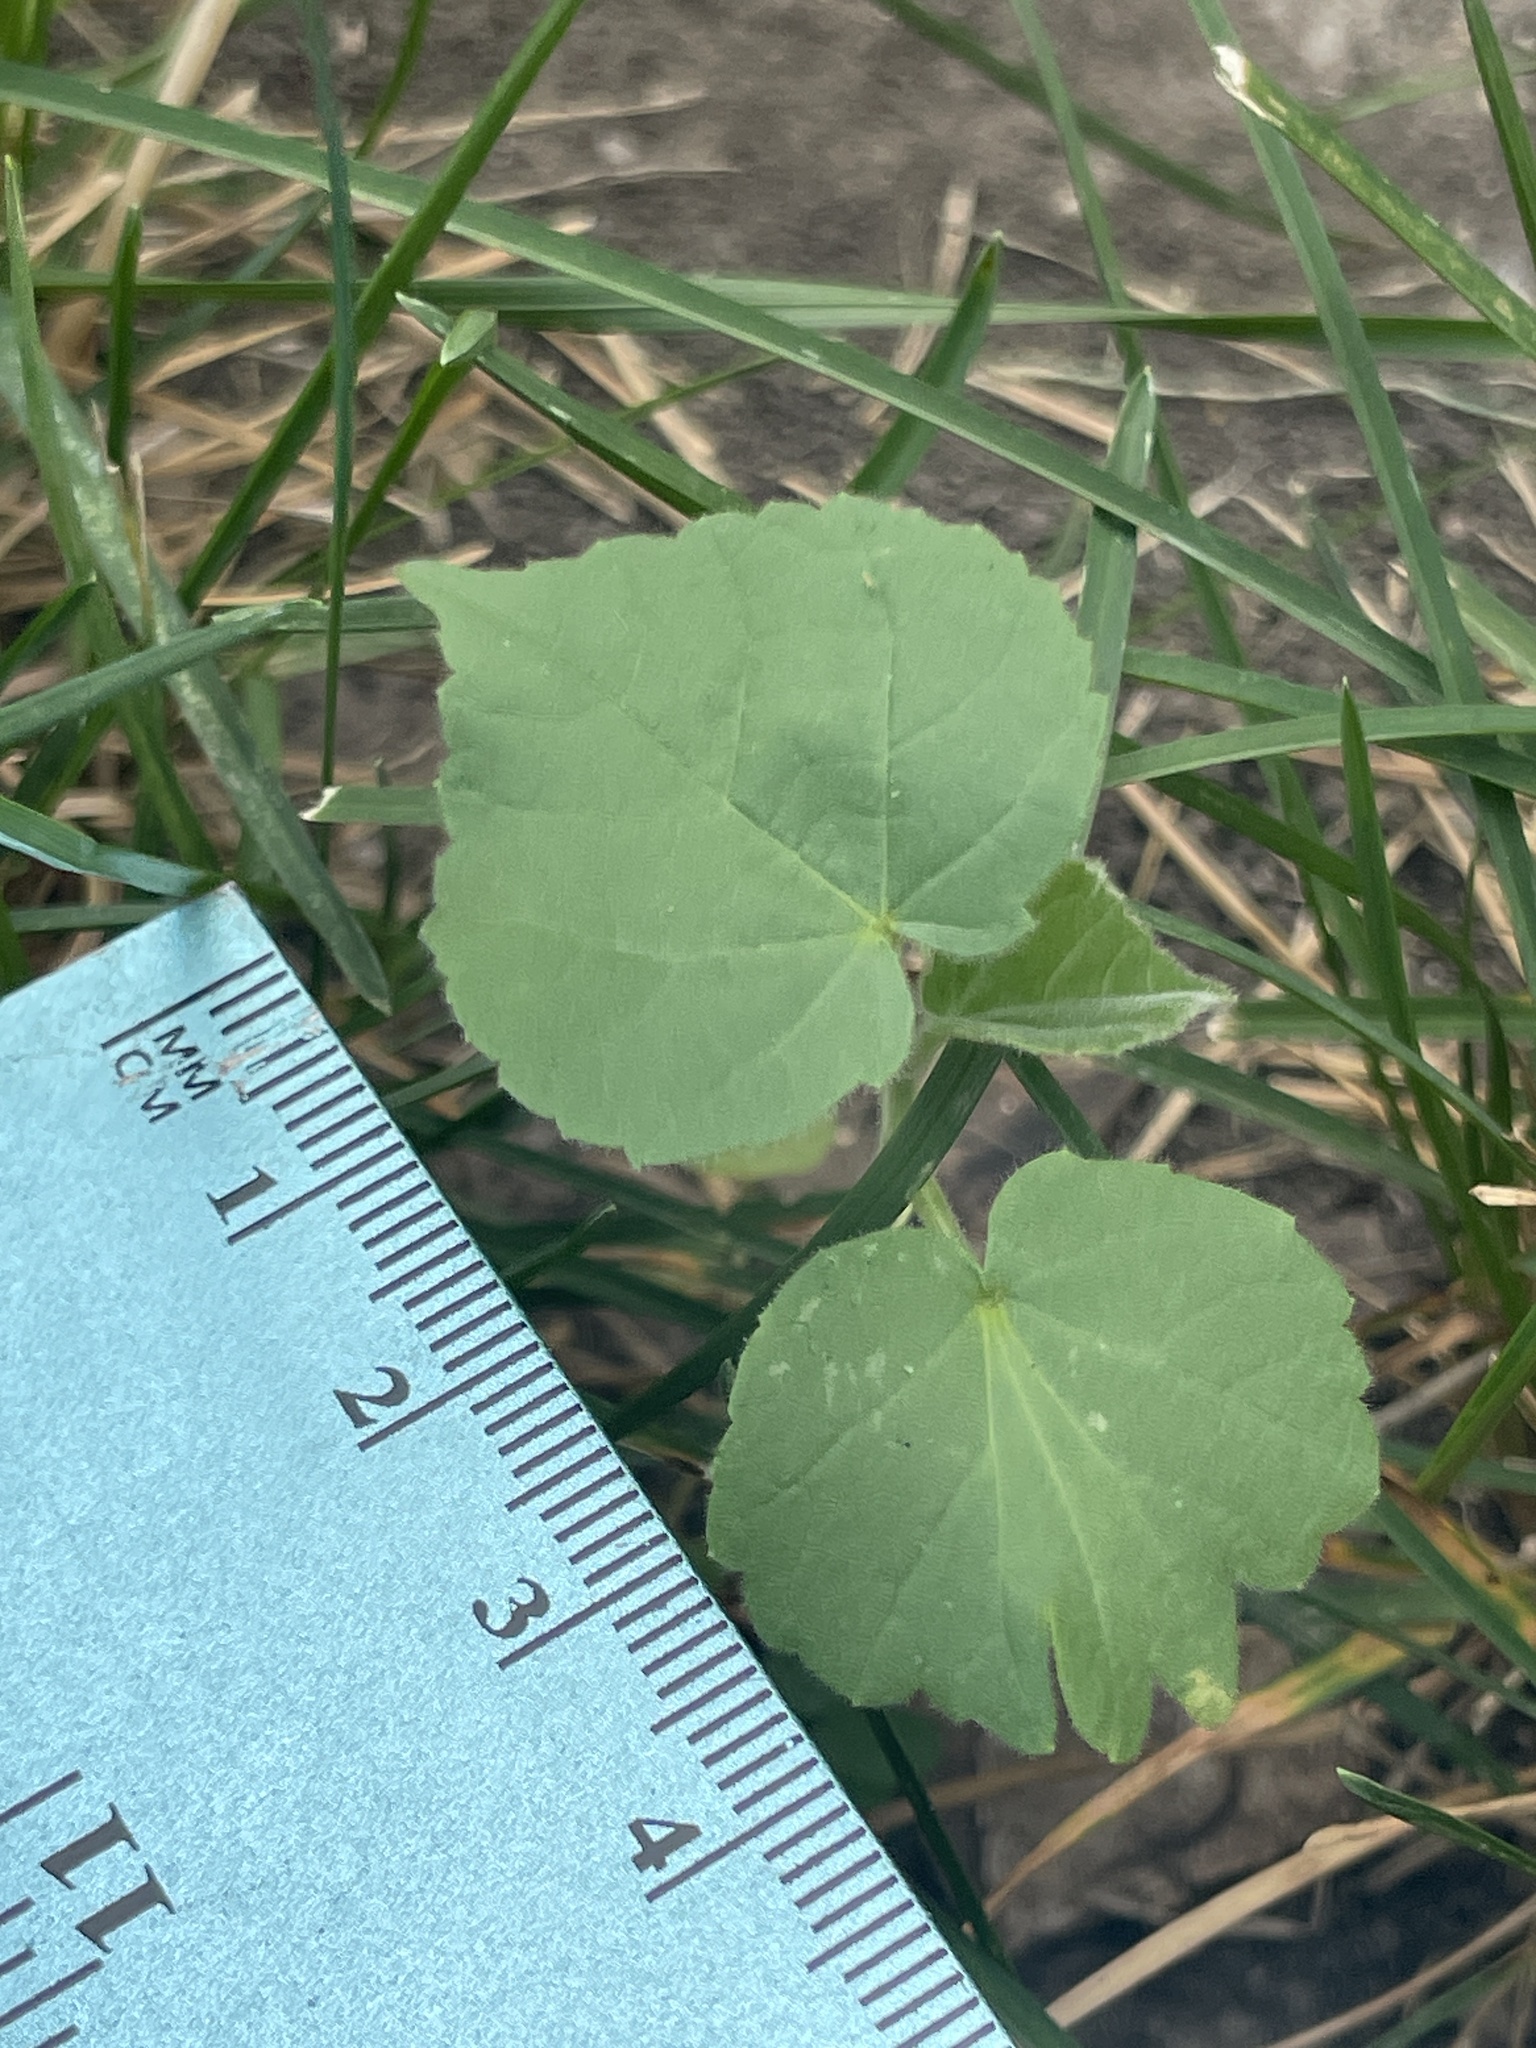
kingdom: Plantae
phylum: Tracheophyta
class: Magnoliopsida
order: Malvales
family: Malvaceae
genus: Abutilon
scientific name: Abutilon theophrasti
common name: Velvetleaf
